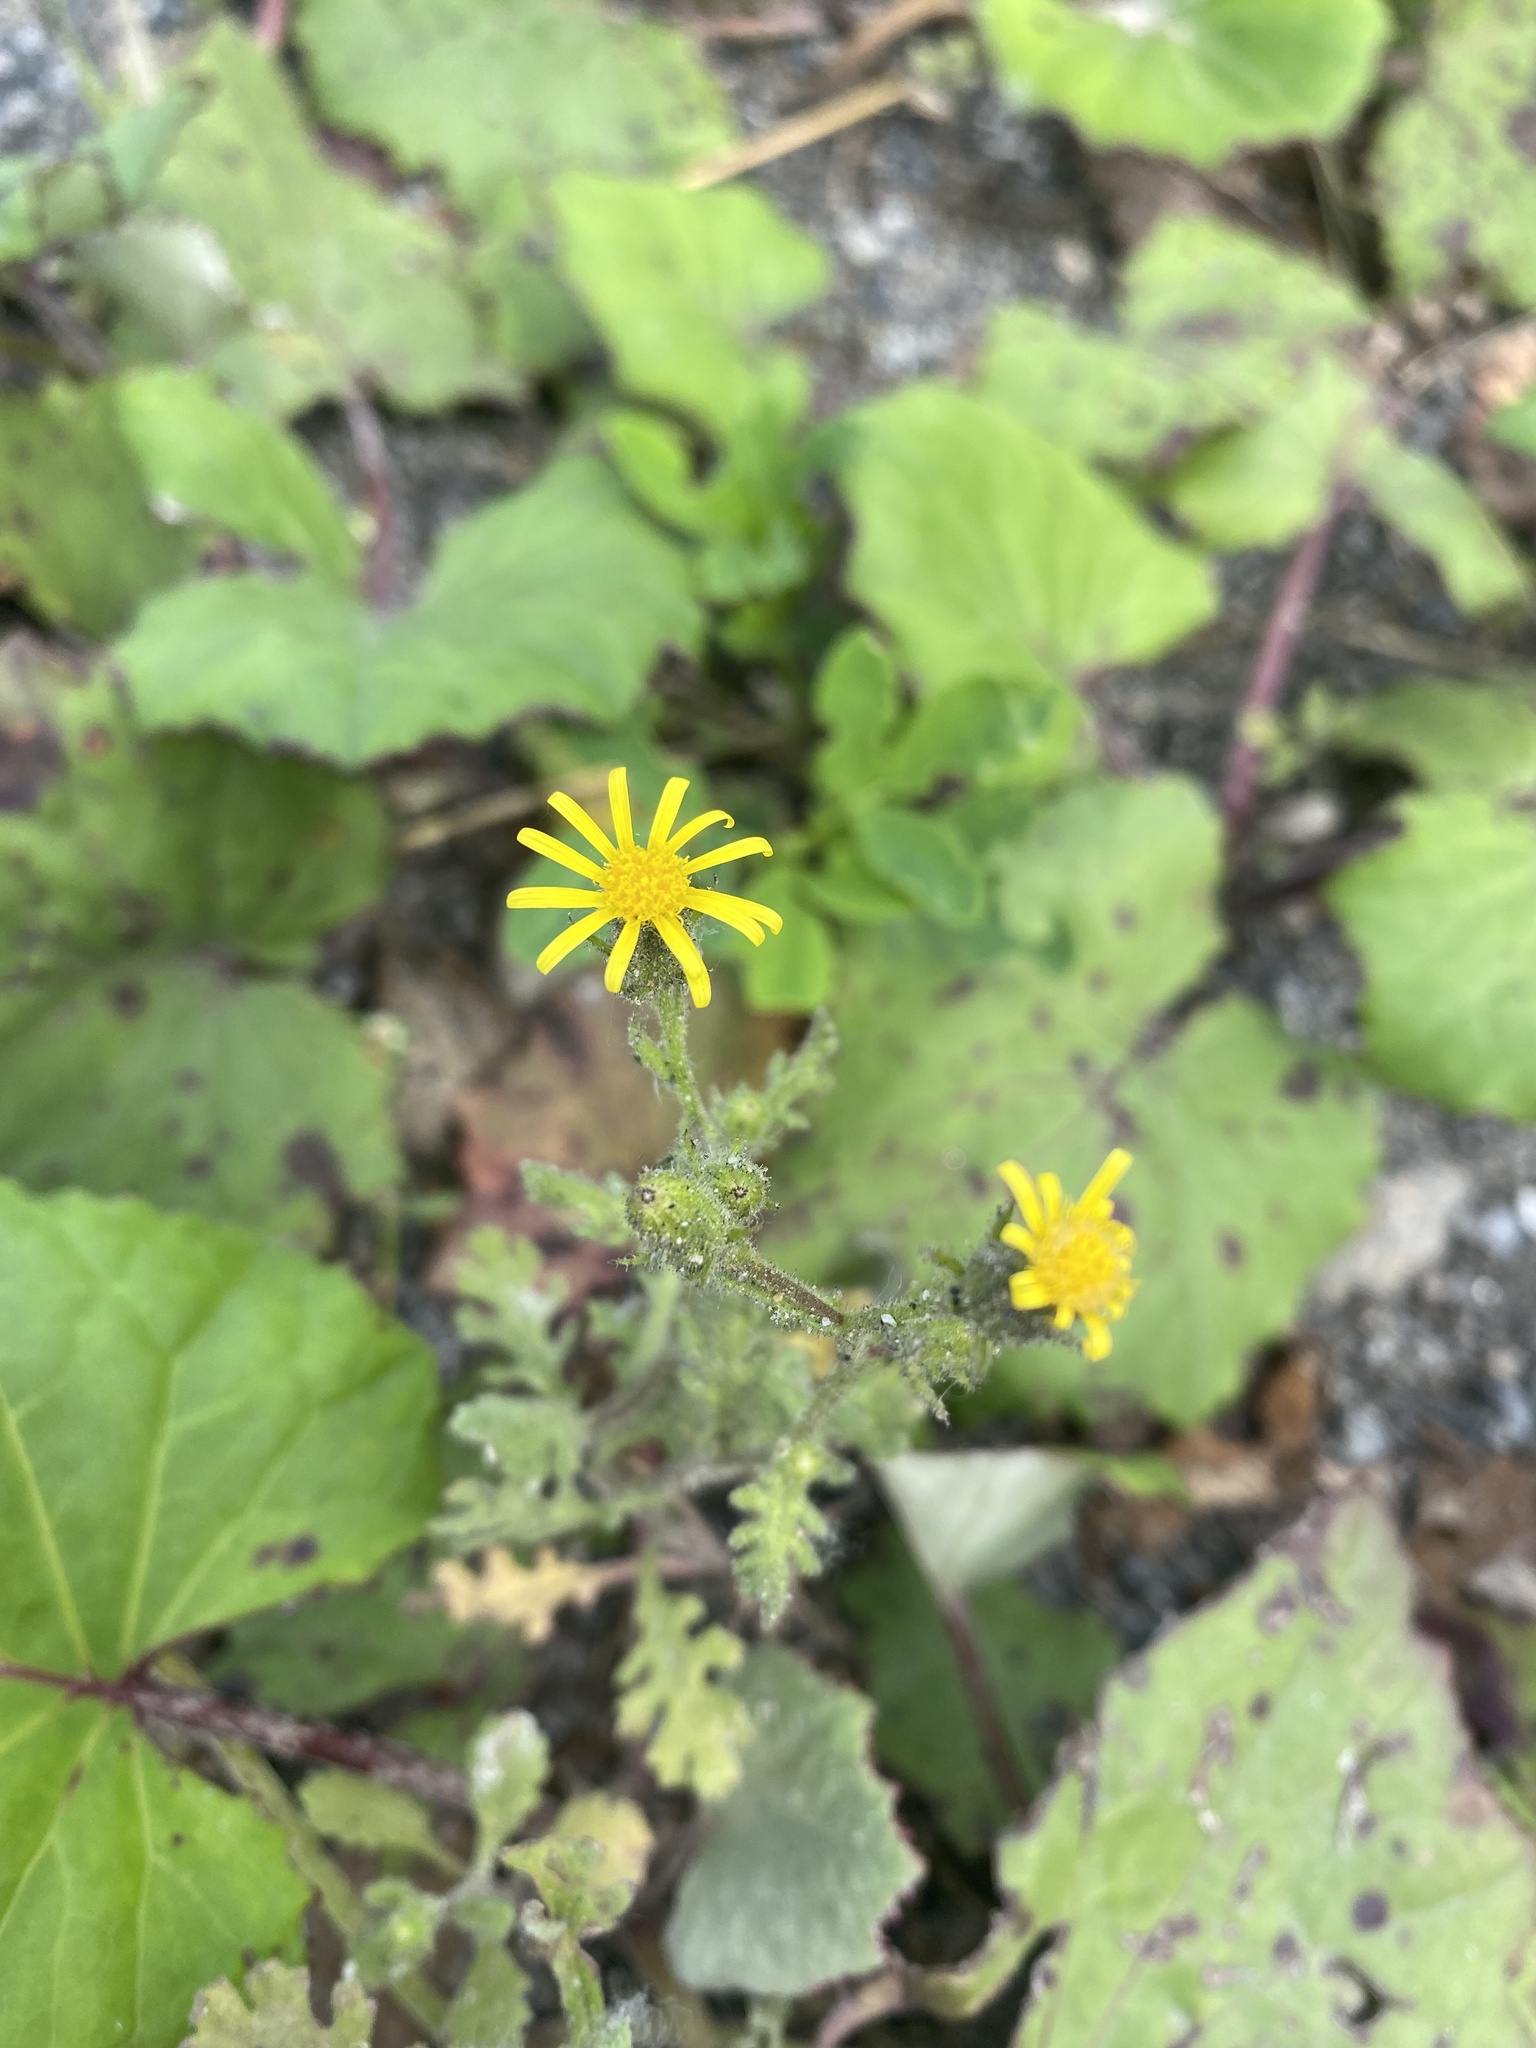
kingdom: Plantae
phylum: Tracheophyta
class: Magnoliopsida
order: Asterales
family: Asteraceae
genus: Senecio
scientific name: Senecio viscosus
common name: Sticky groundsel
